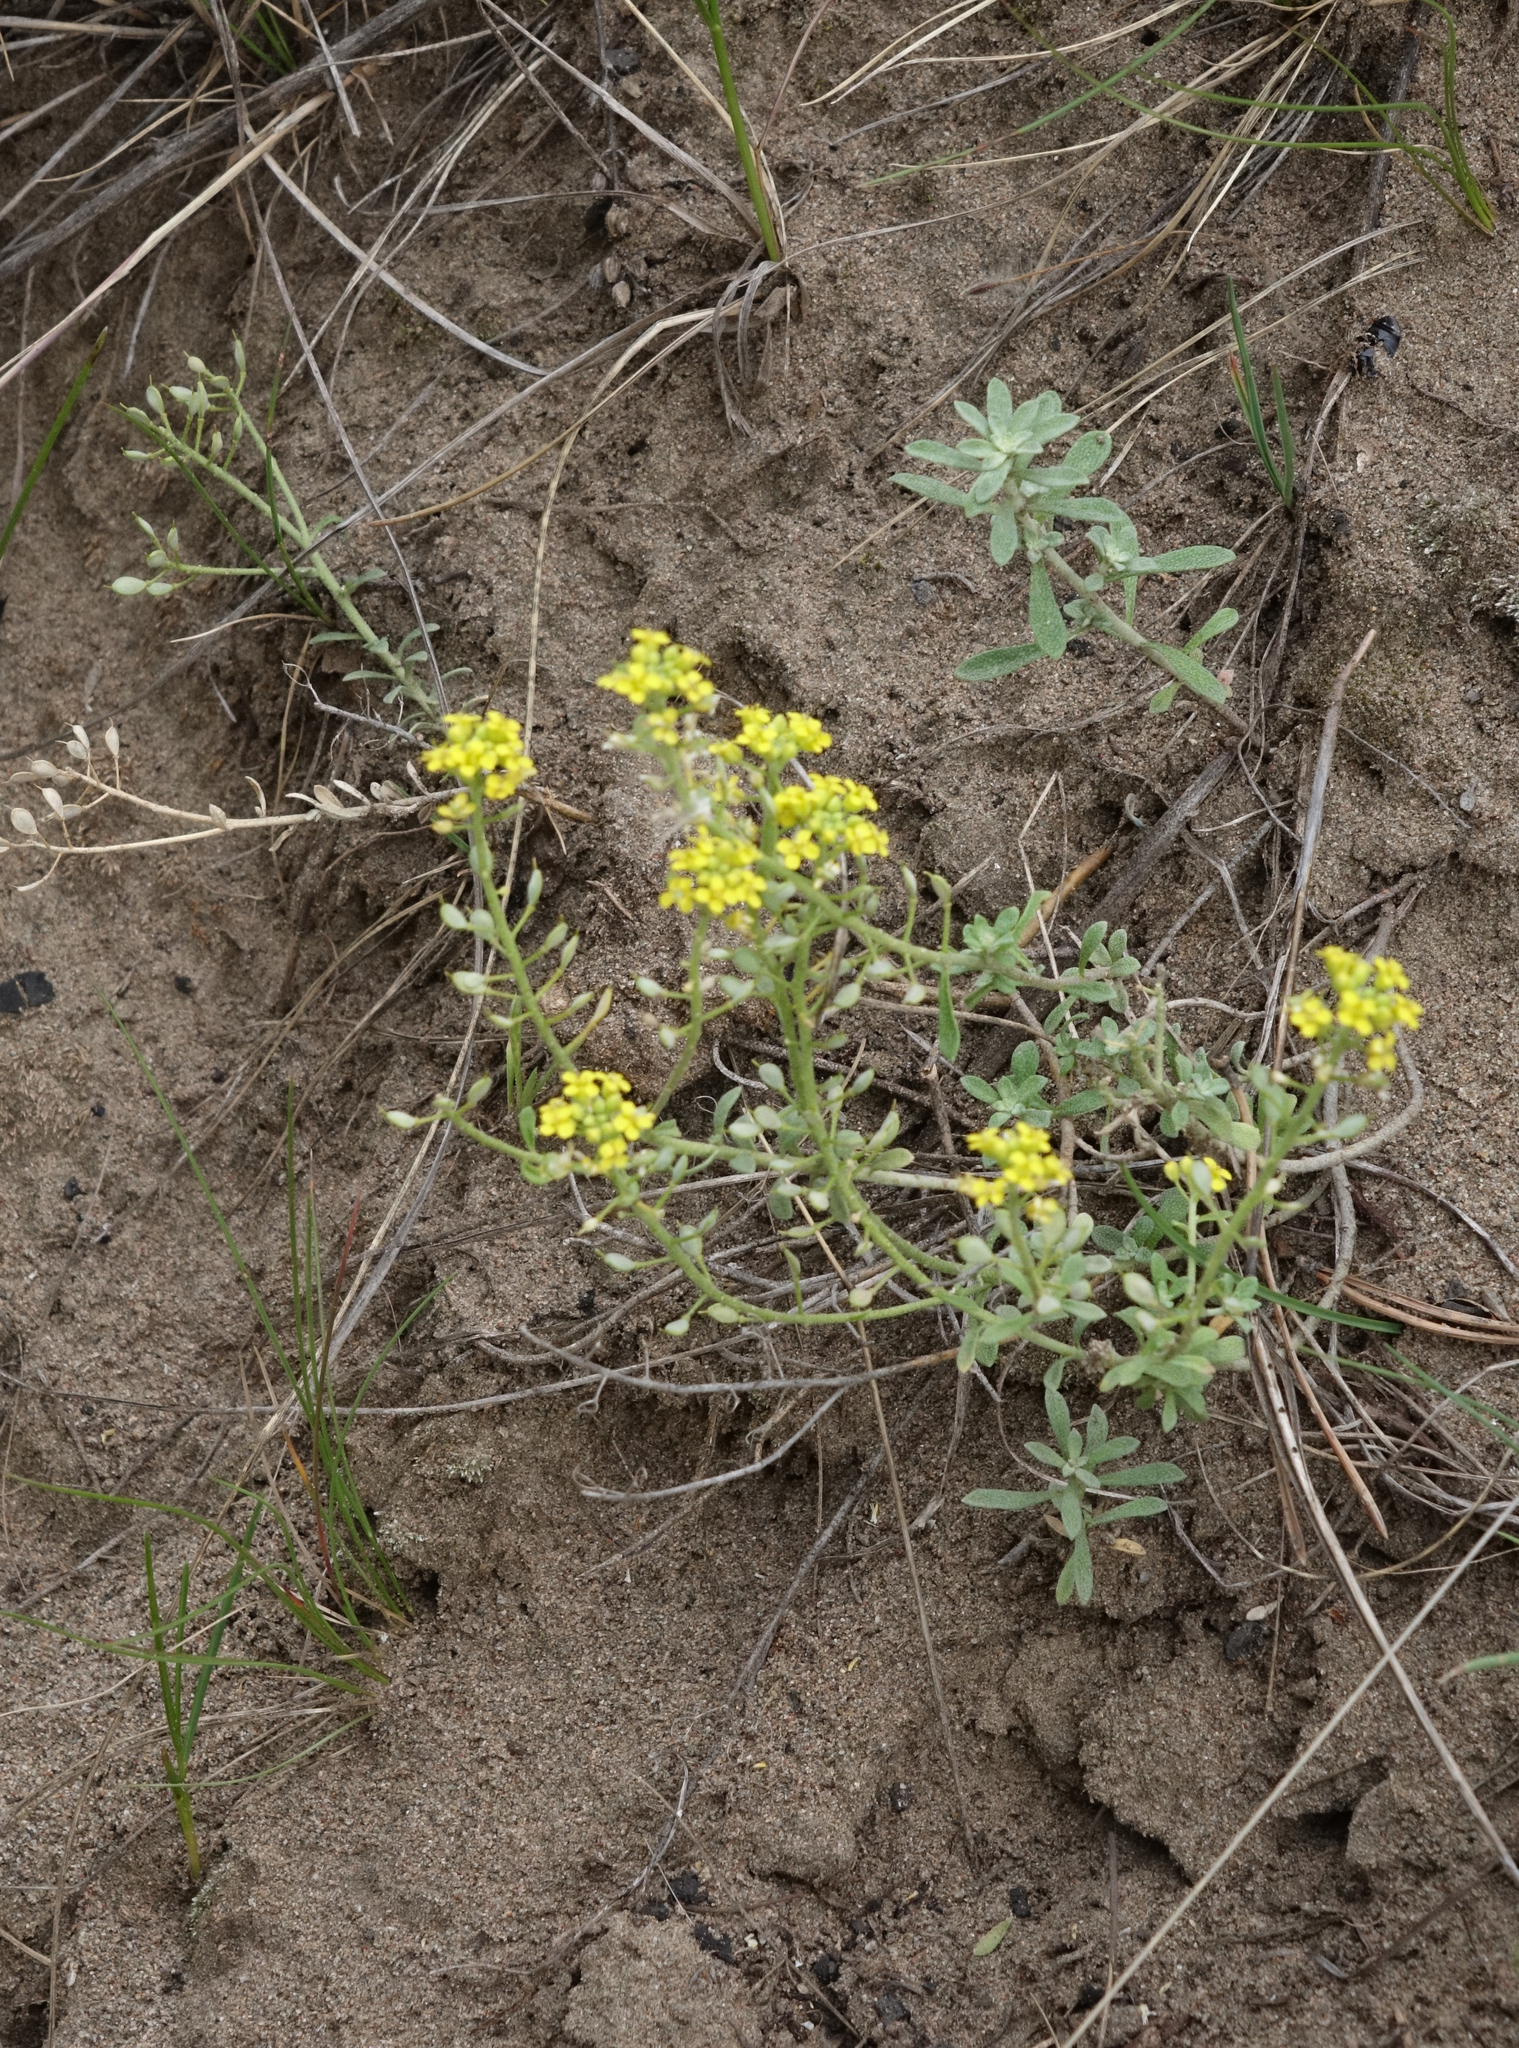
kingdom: Plantae
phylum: Tracheophyta
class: Magnoliopsida
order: Brassicales
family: Brassicaceae
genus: Odontarrhena
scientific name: Odontarrhena obovata
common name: American alyssum
